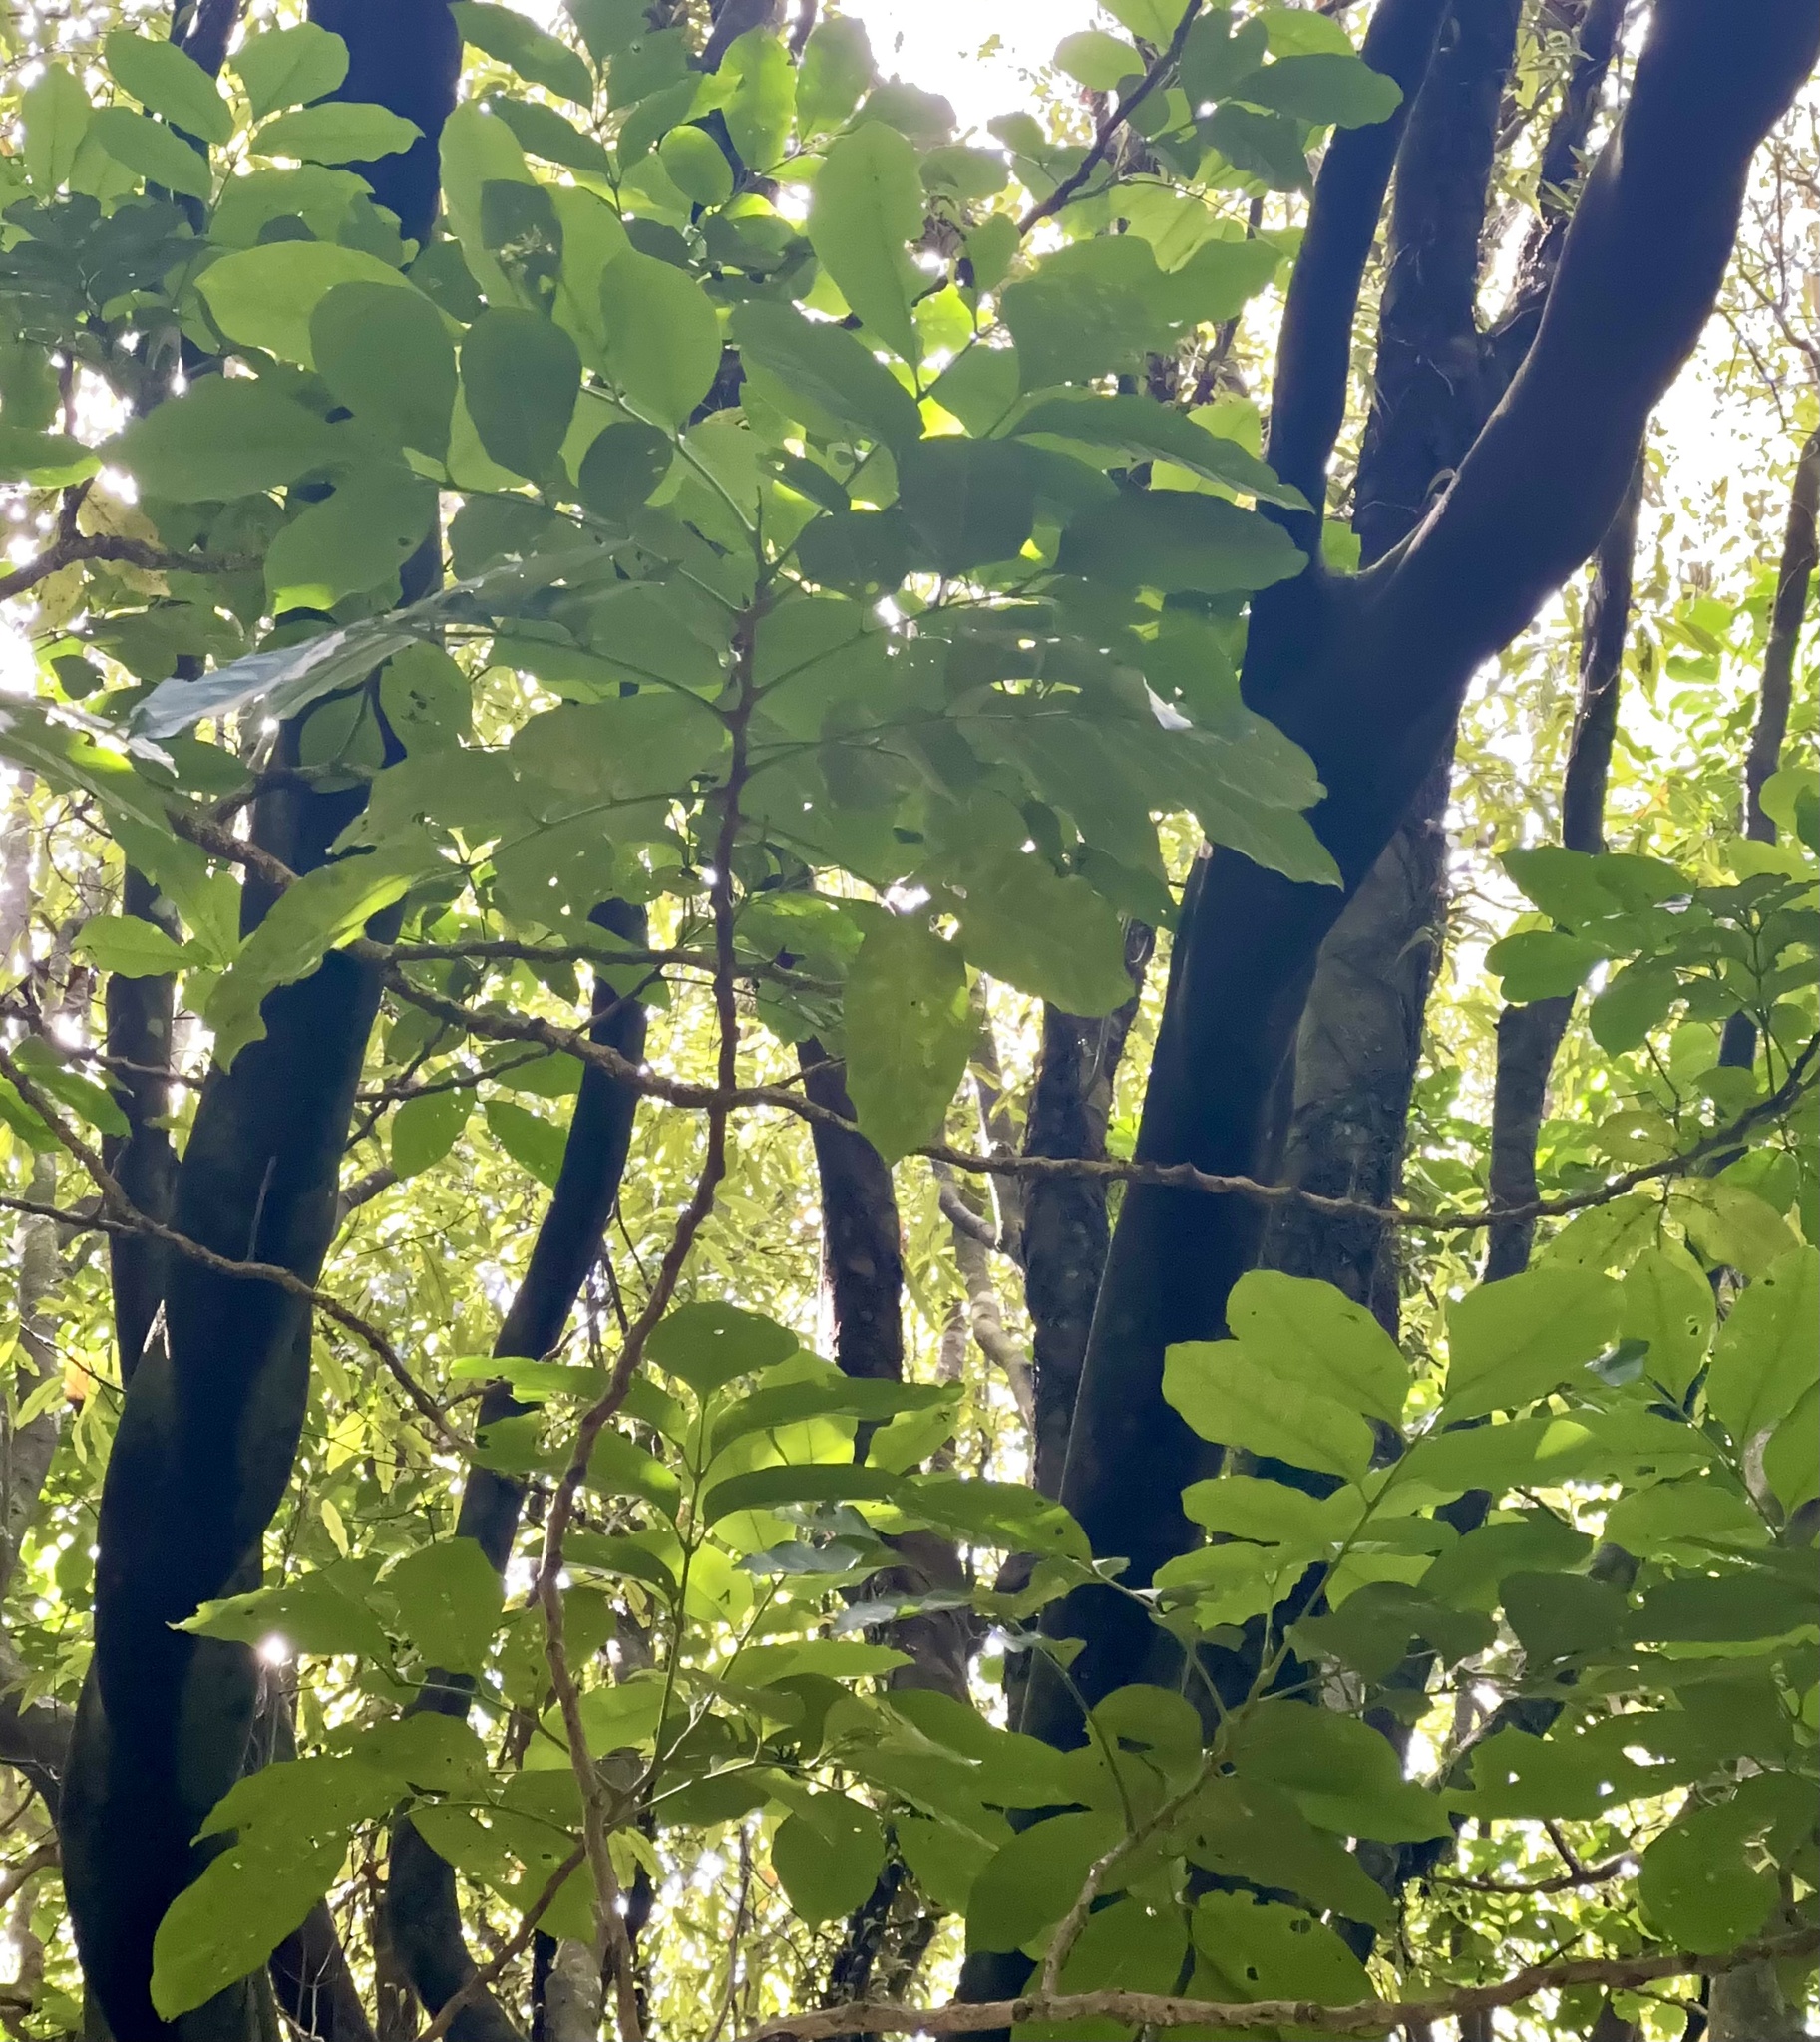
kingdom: Plantae
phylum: Tracheophyta
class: Magnoliopsida
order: Sapindales
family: Meliaceae
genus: Didymocheton
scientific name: Didymocheton spectabilis
